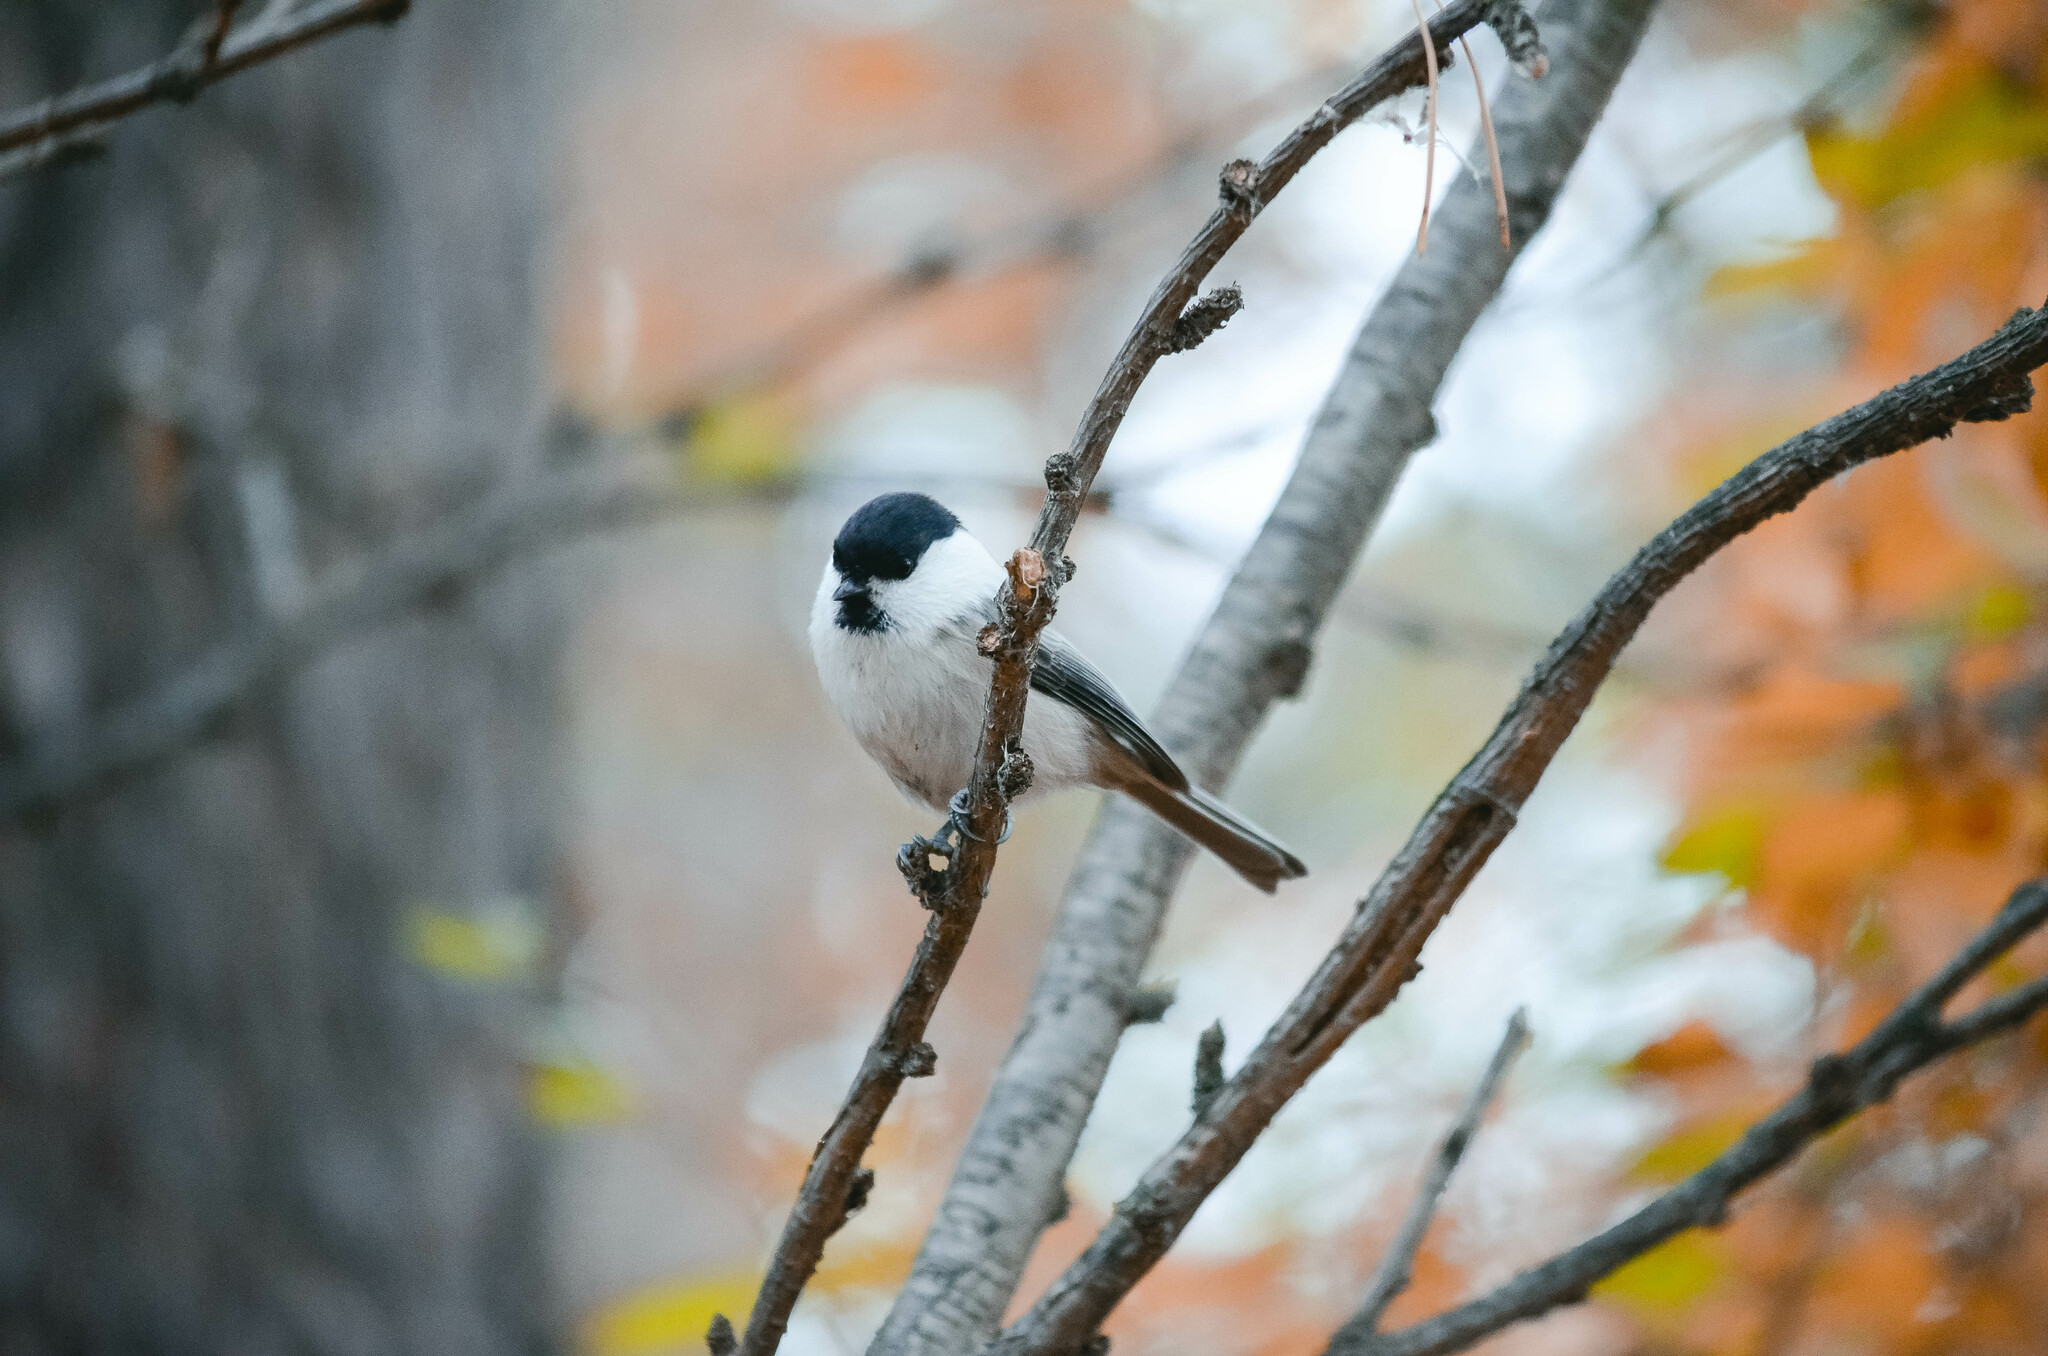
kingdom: Animalia
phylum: Chordata
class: Aves
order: Passeriformes
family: Paridae
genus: Poecile
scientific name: Poecile montanus
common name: Willow tit
